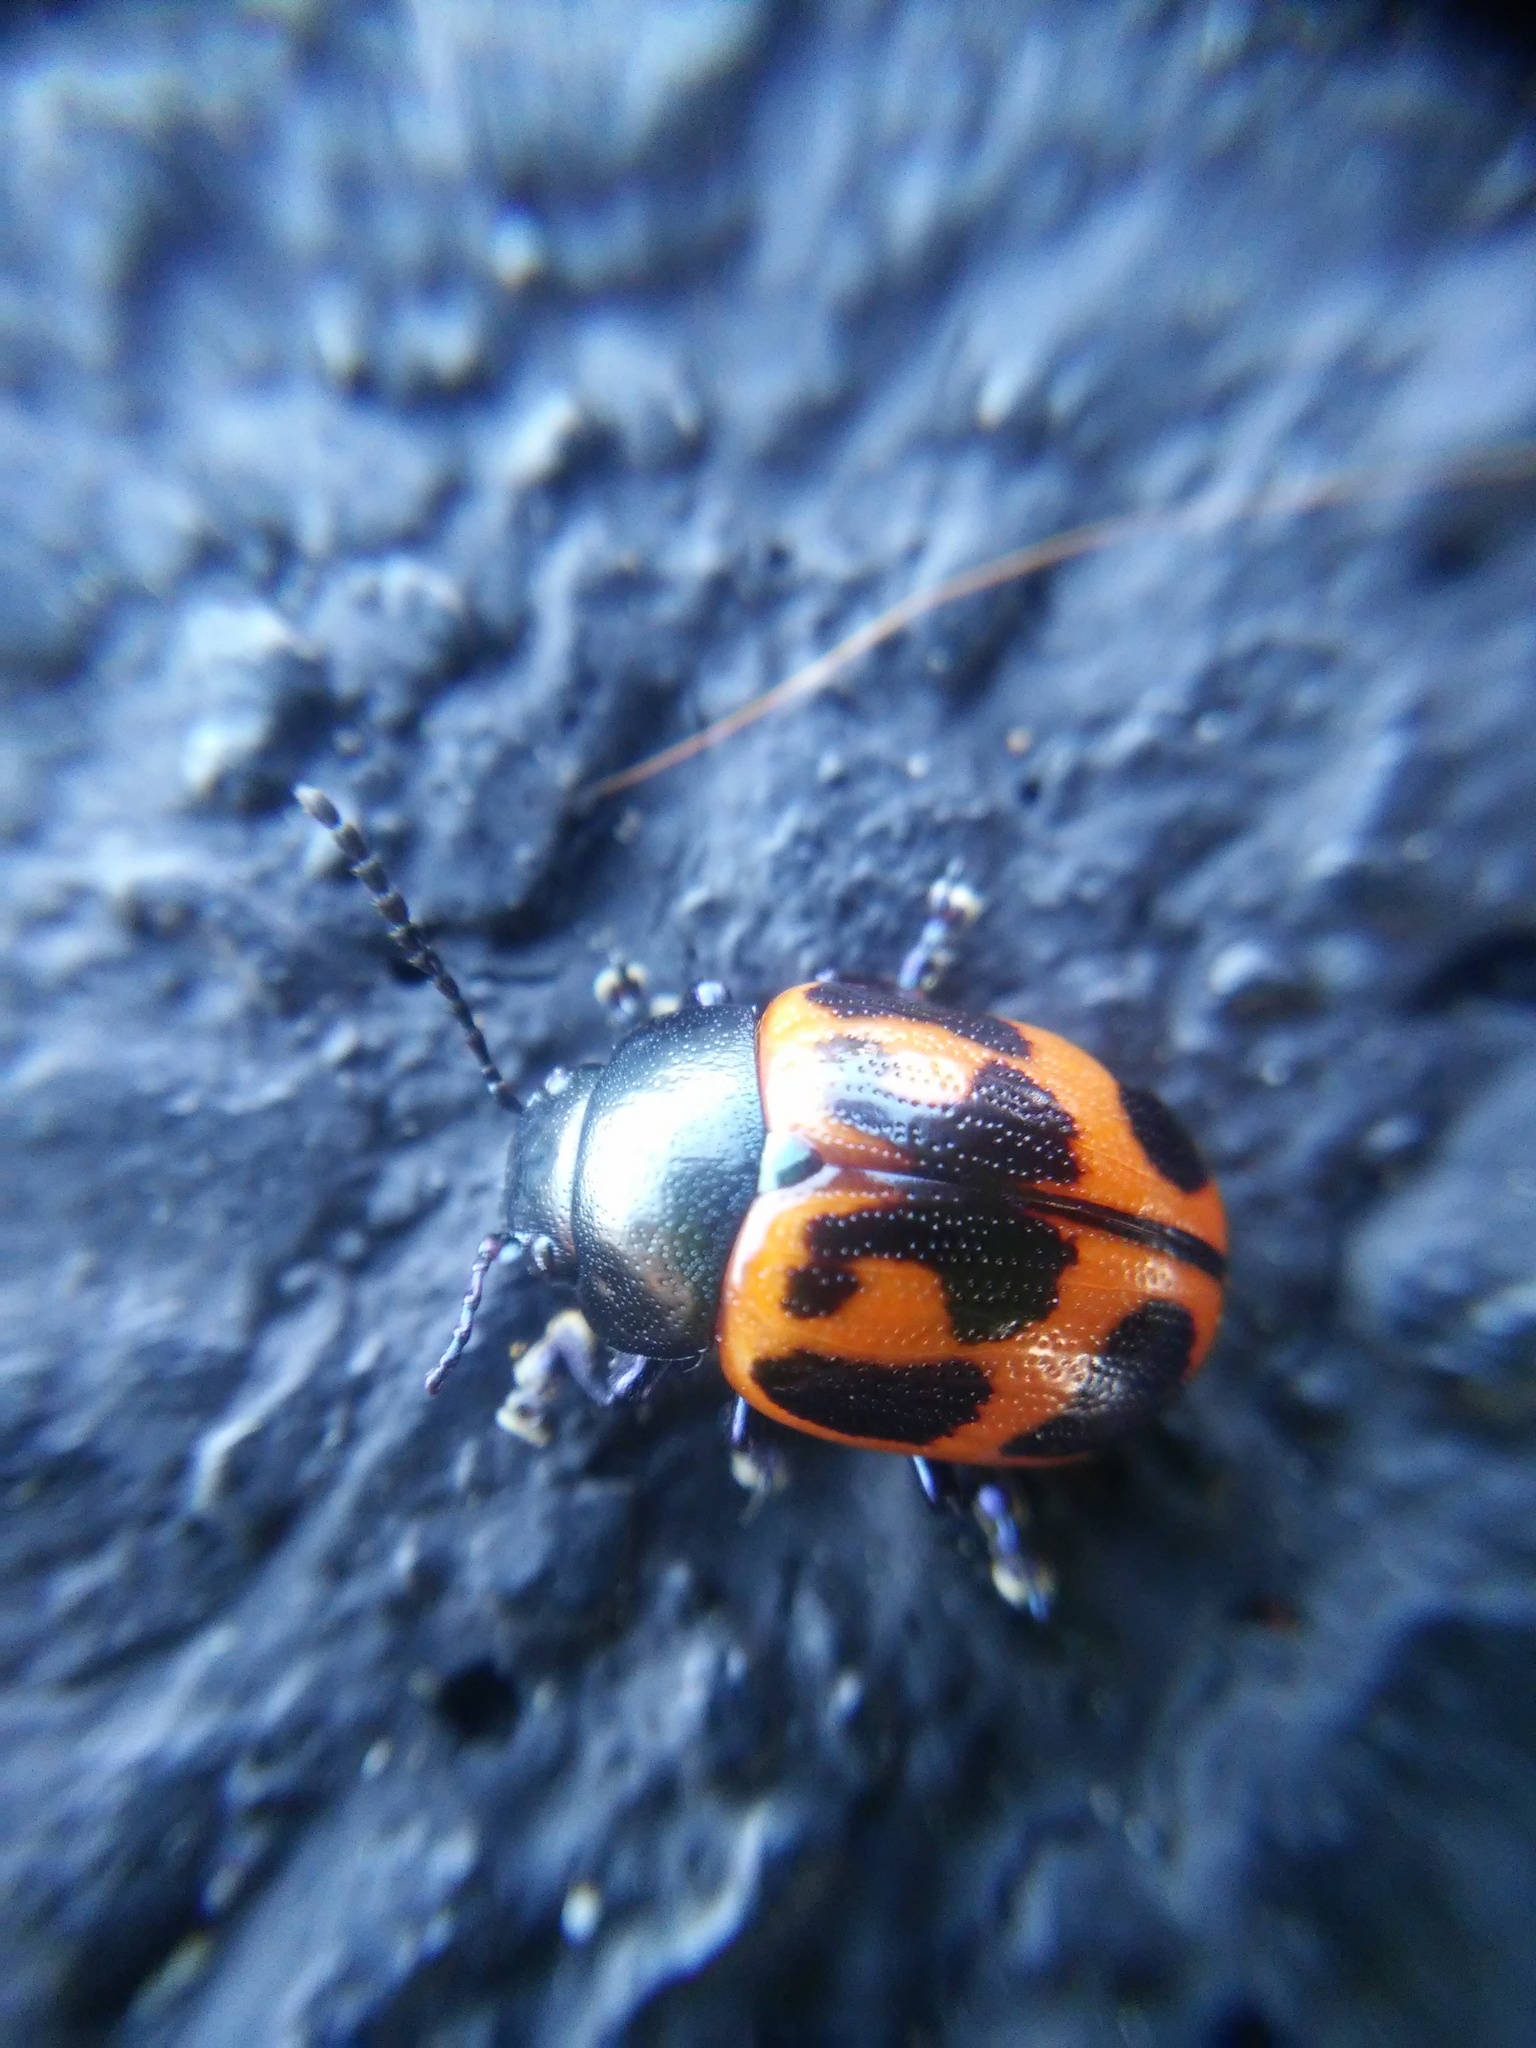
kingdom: Animalia
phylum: Arthropoda
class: Insecta
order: Coleoptera
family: Chrysomelidae
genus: Labidomera
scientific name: Labidomera clivicollis
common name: Swamp milkweed leaf beetle
